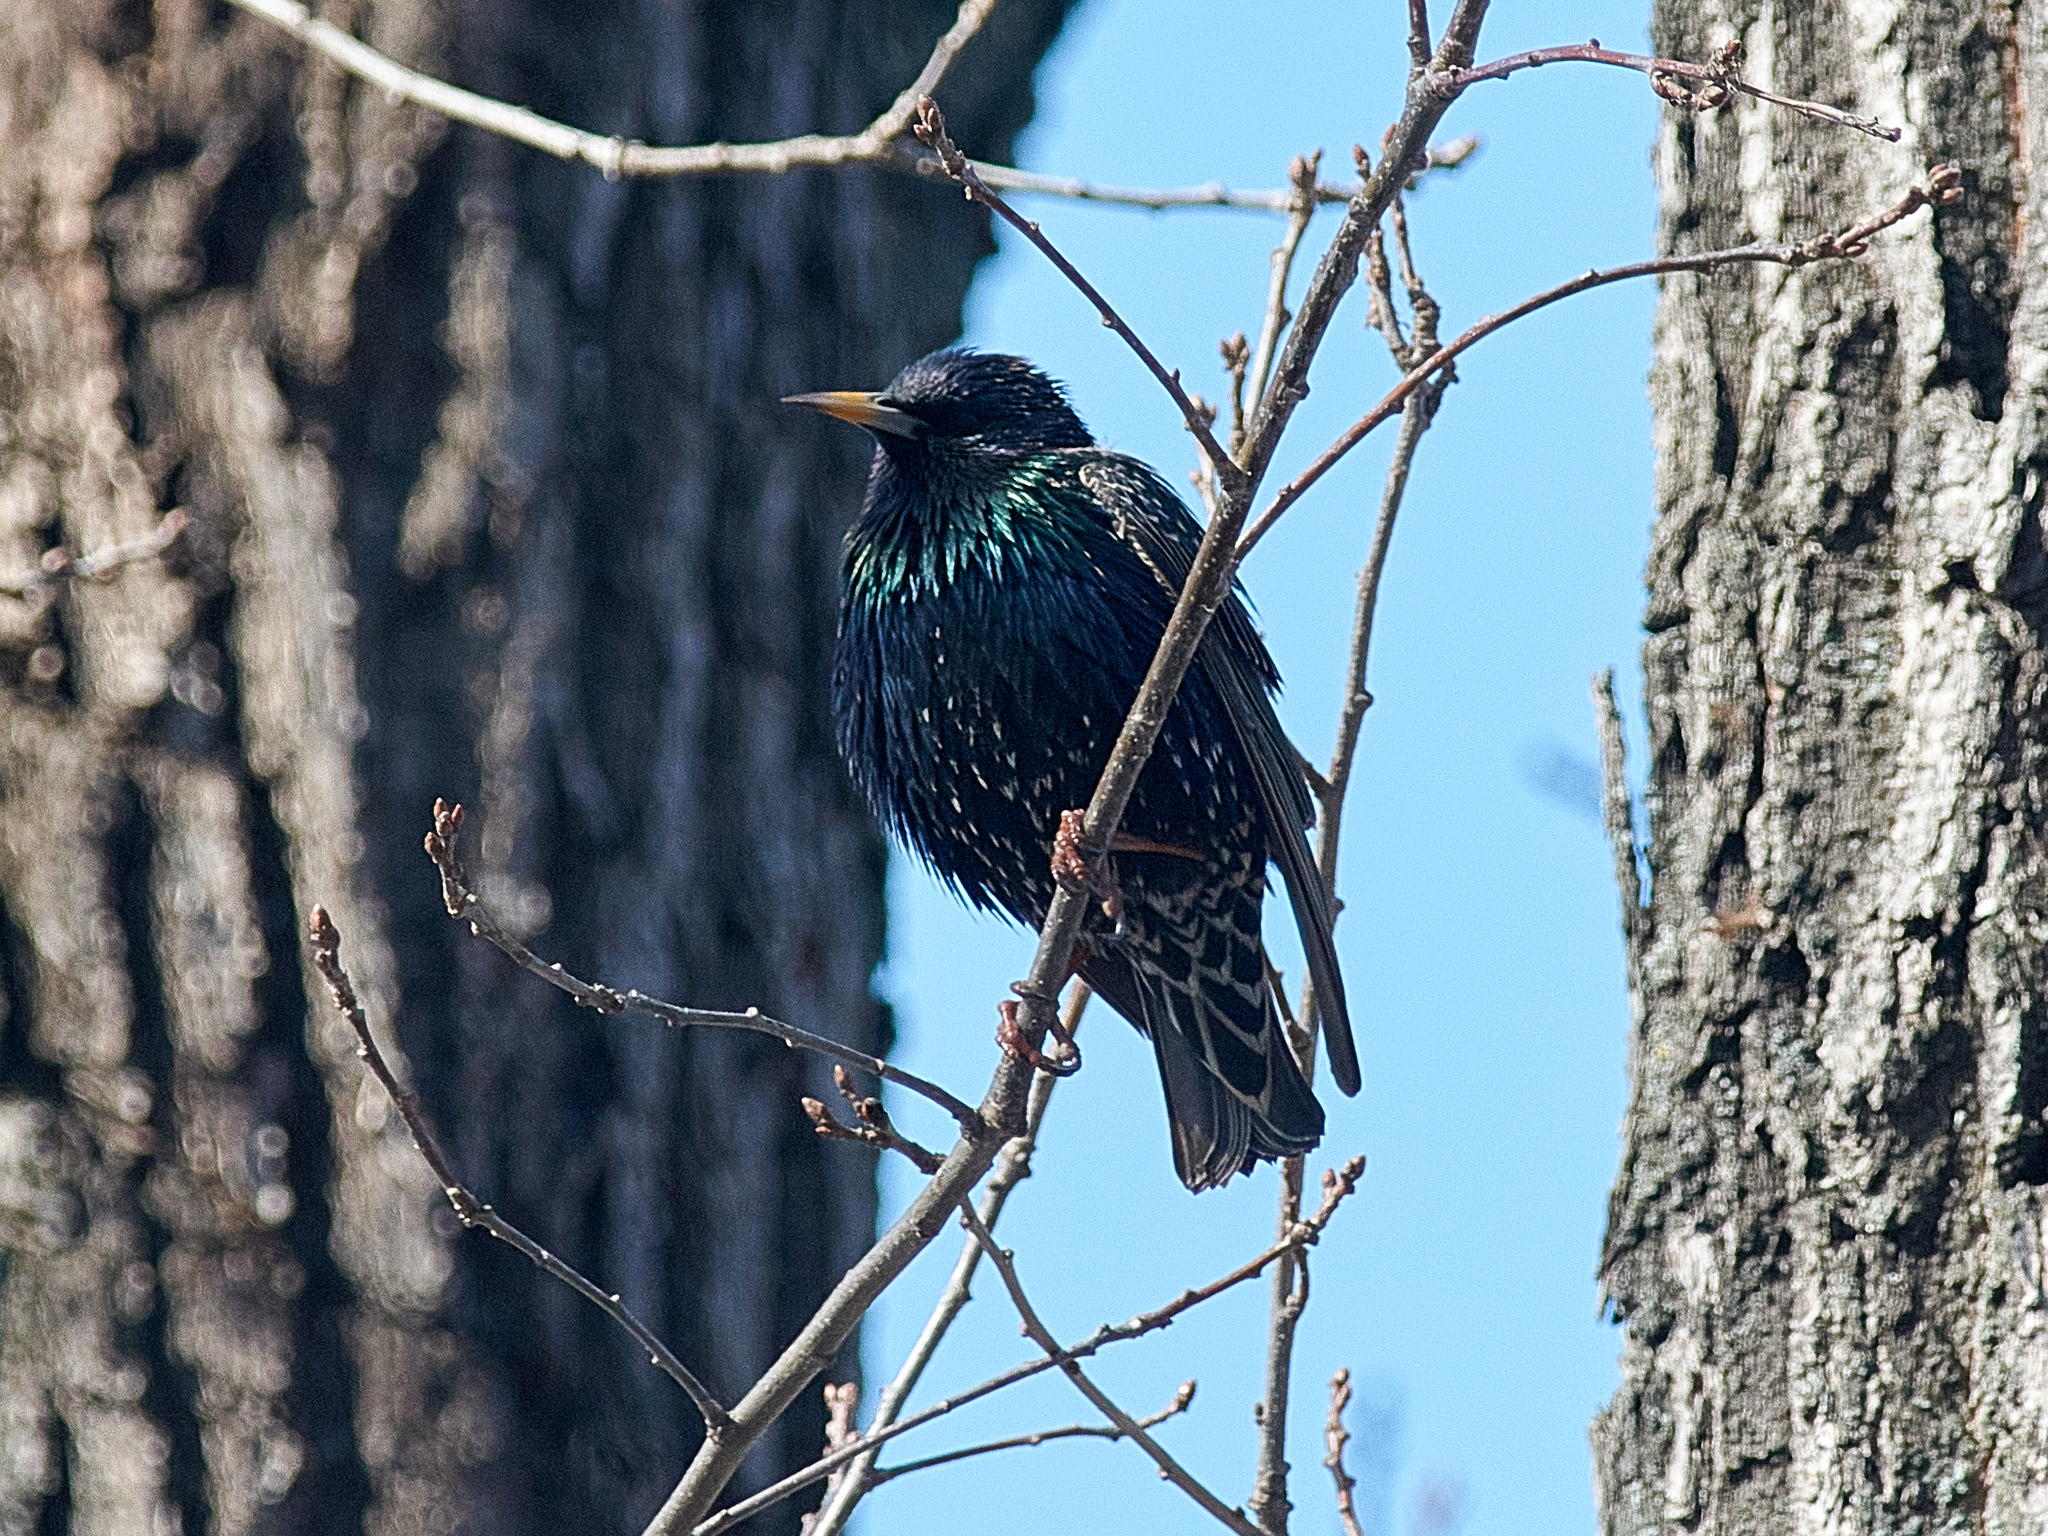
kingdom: Animalia
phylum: Chordata
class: Aves
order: Passeriformes
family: Sturnidae
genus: Sturnus
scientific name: Sturnus vulgaris
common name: Common starling
